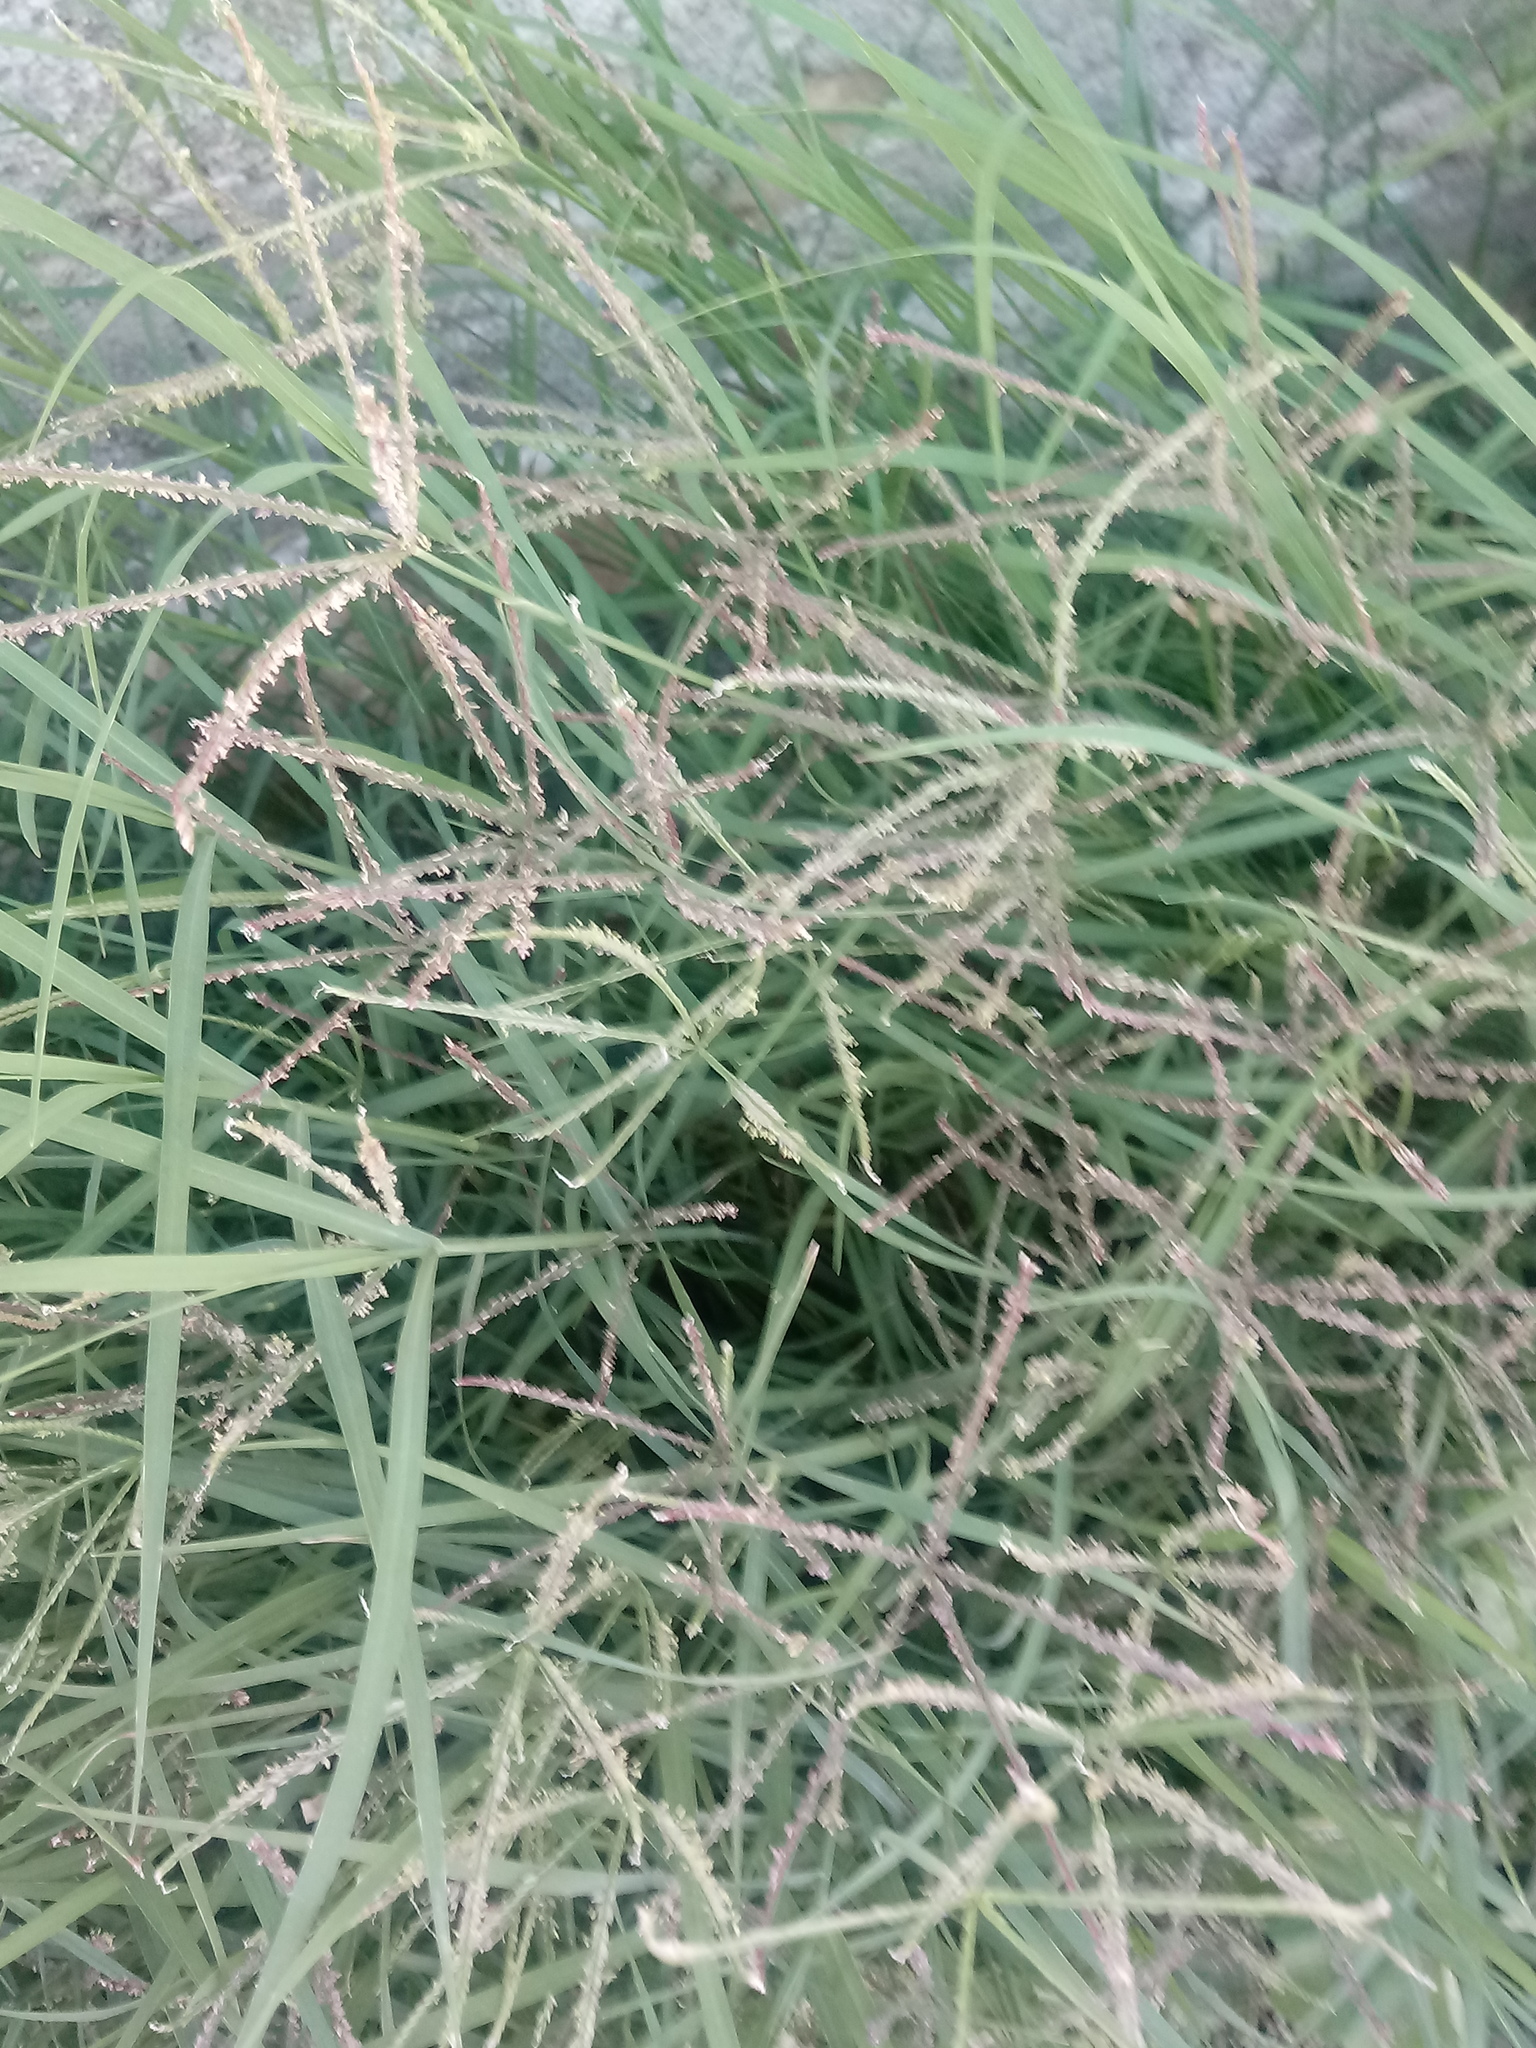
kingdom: Plantae
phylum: Tracheophyta
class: Liliopsida
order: Poales
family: Poaceae
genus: Cynodon
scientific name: Cynodon dactylon
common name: Bermuda grass
